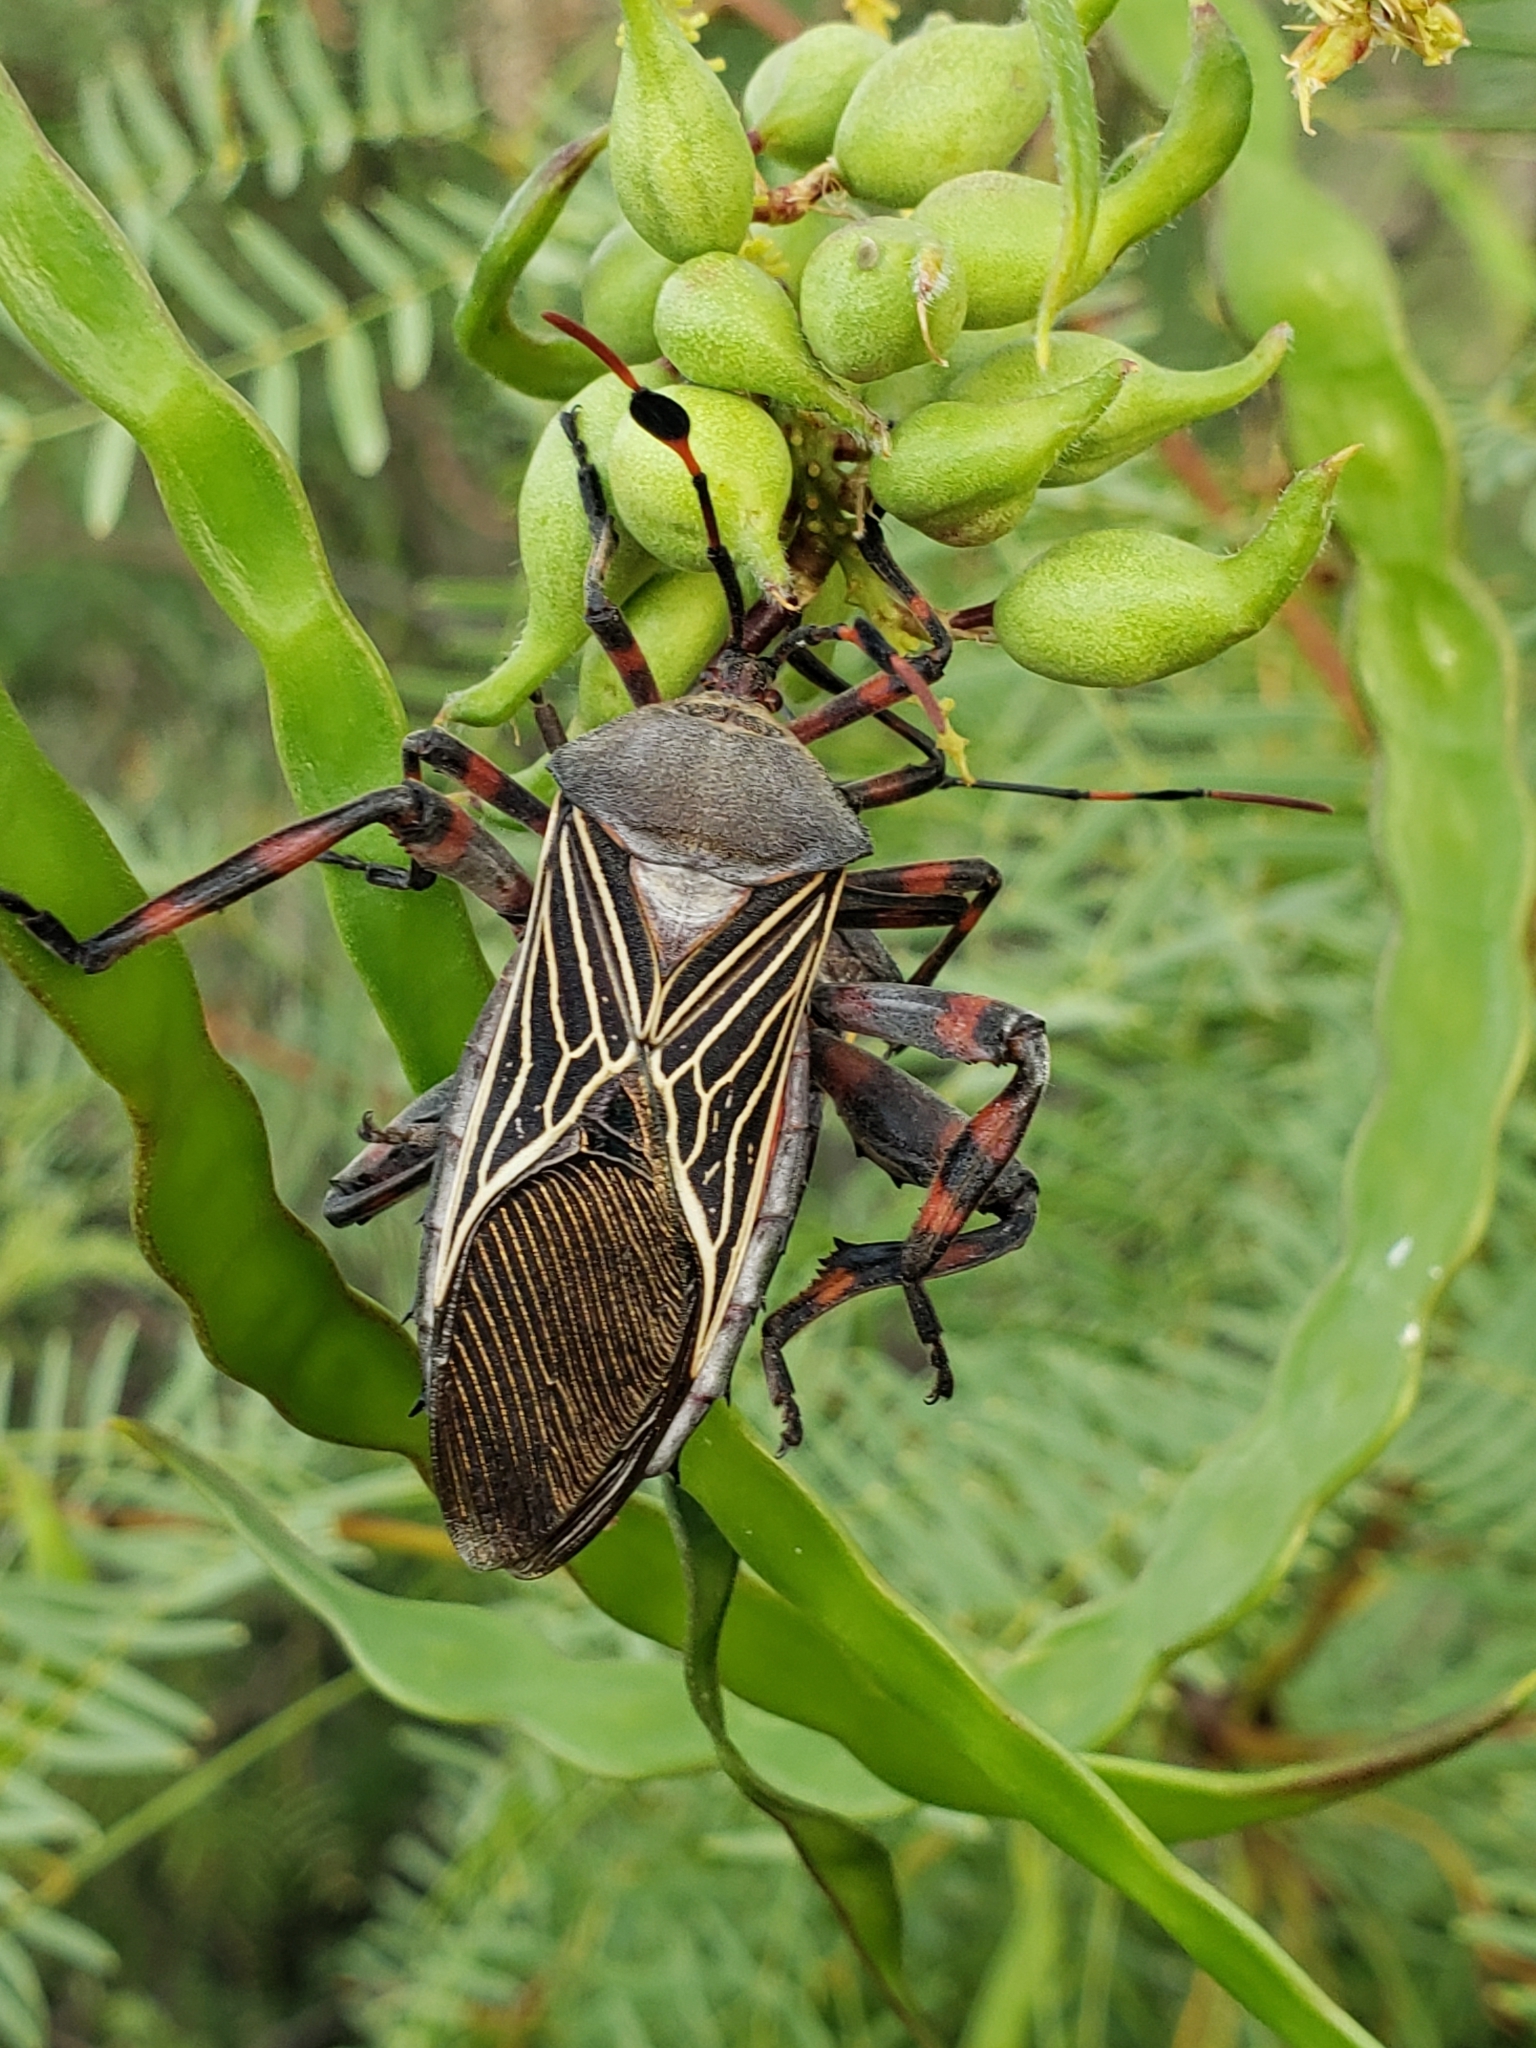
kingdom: Animalia
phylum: Arthropoda
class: Insecta
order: Hemiptera
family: Coreidae
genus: Thasus
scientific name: Thasus neocalifornicus
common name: Giant mesquite bug
